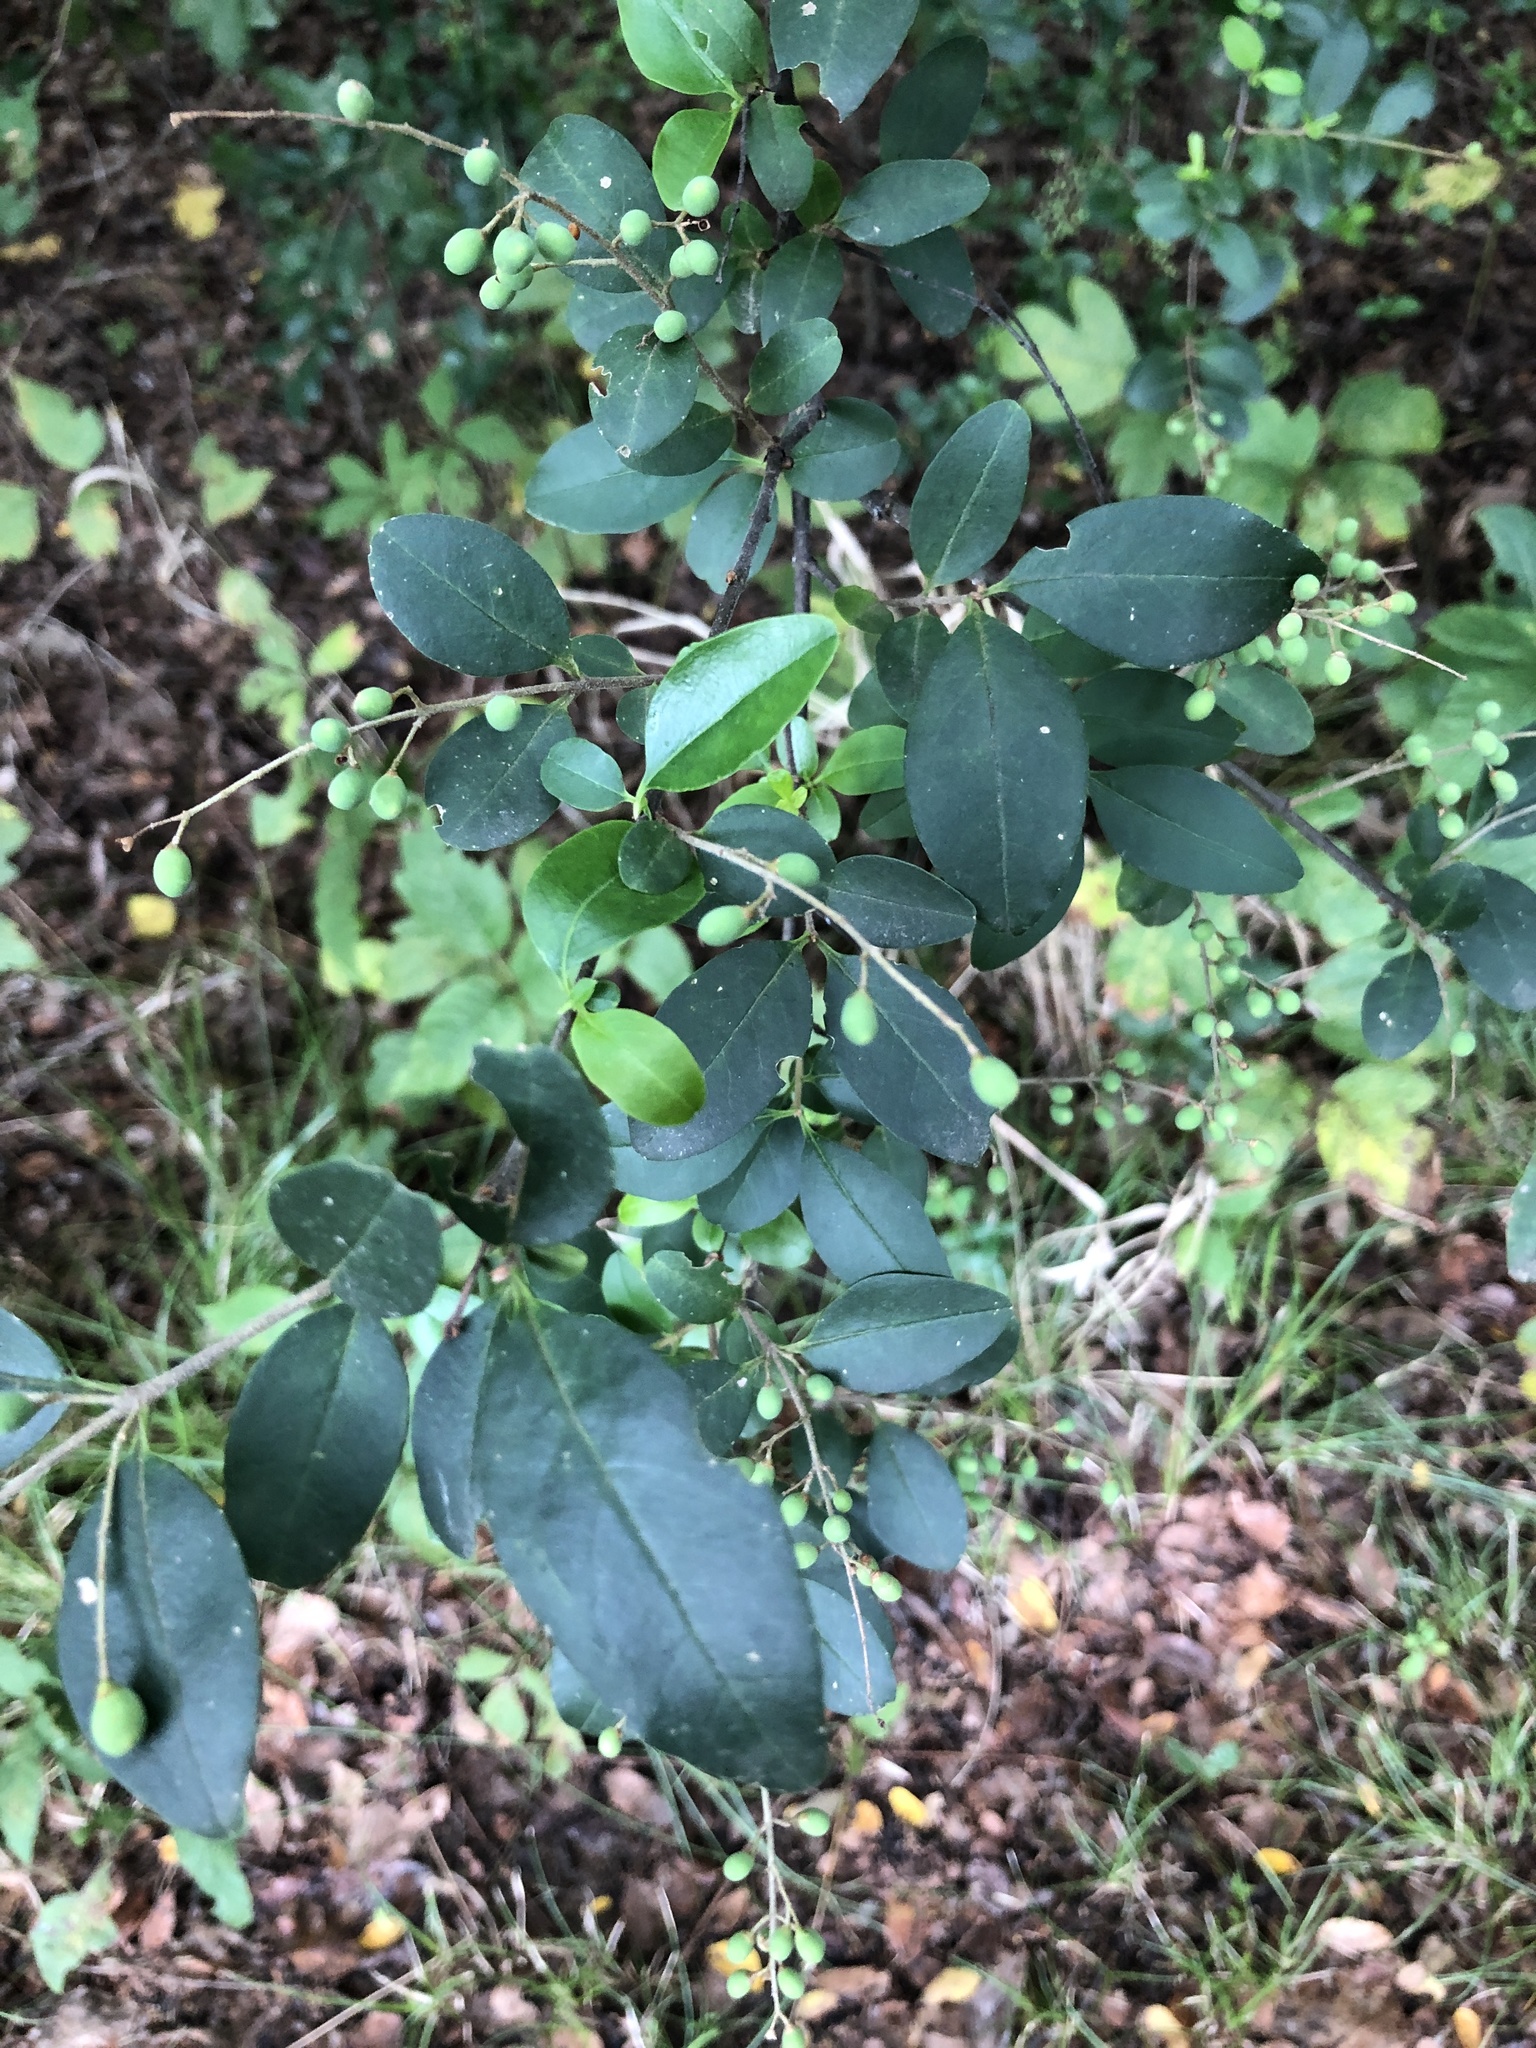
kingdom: Plantae
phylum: Tracheophyta
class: Magnoliopsida
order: Lamiales
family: Oleaceae
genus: Ligustrum
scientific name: Ligustrum sinense
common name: Chinese privet
